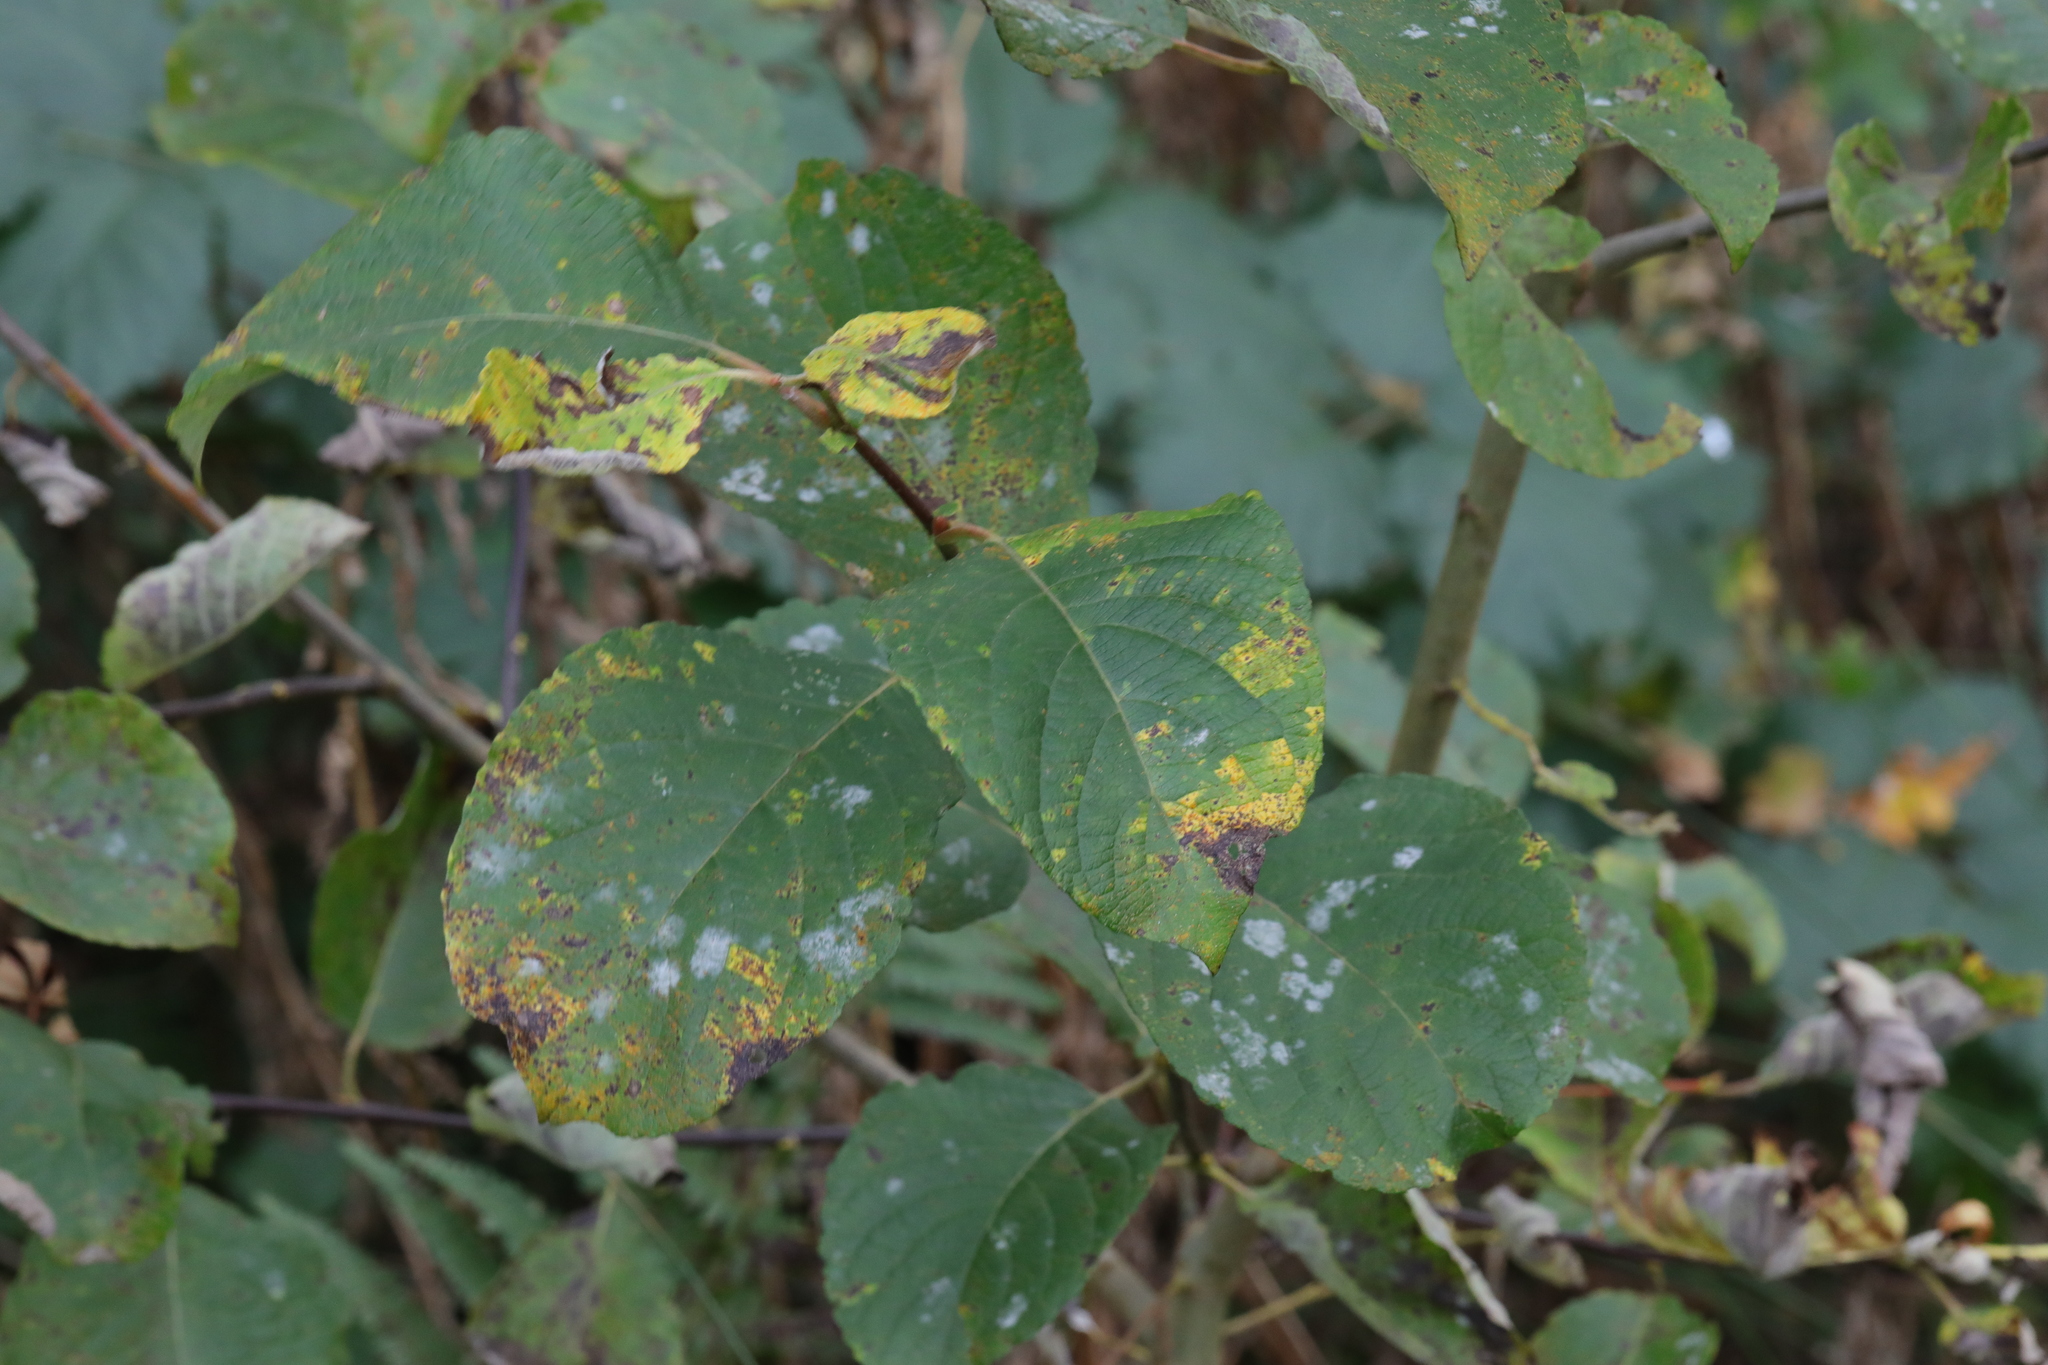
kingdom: Plantae
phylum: Tracheophyta
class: Magnoliopsida
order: Malpighiales
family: Salicaceae
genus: Salix
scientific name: Salix caprea
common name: Goat willow
